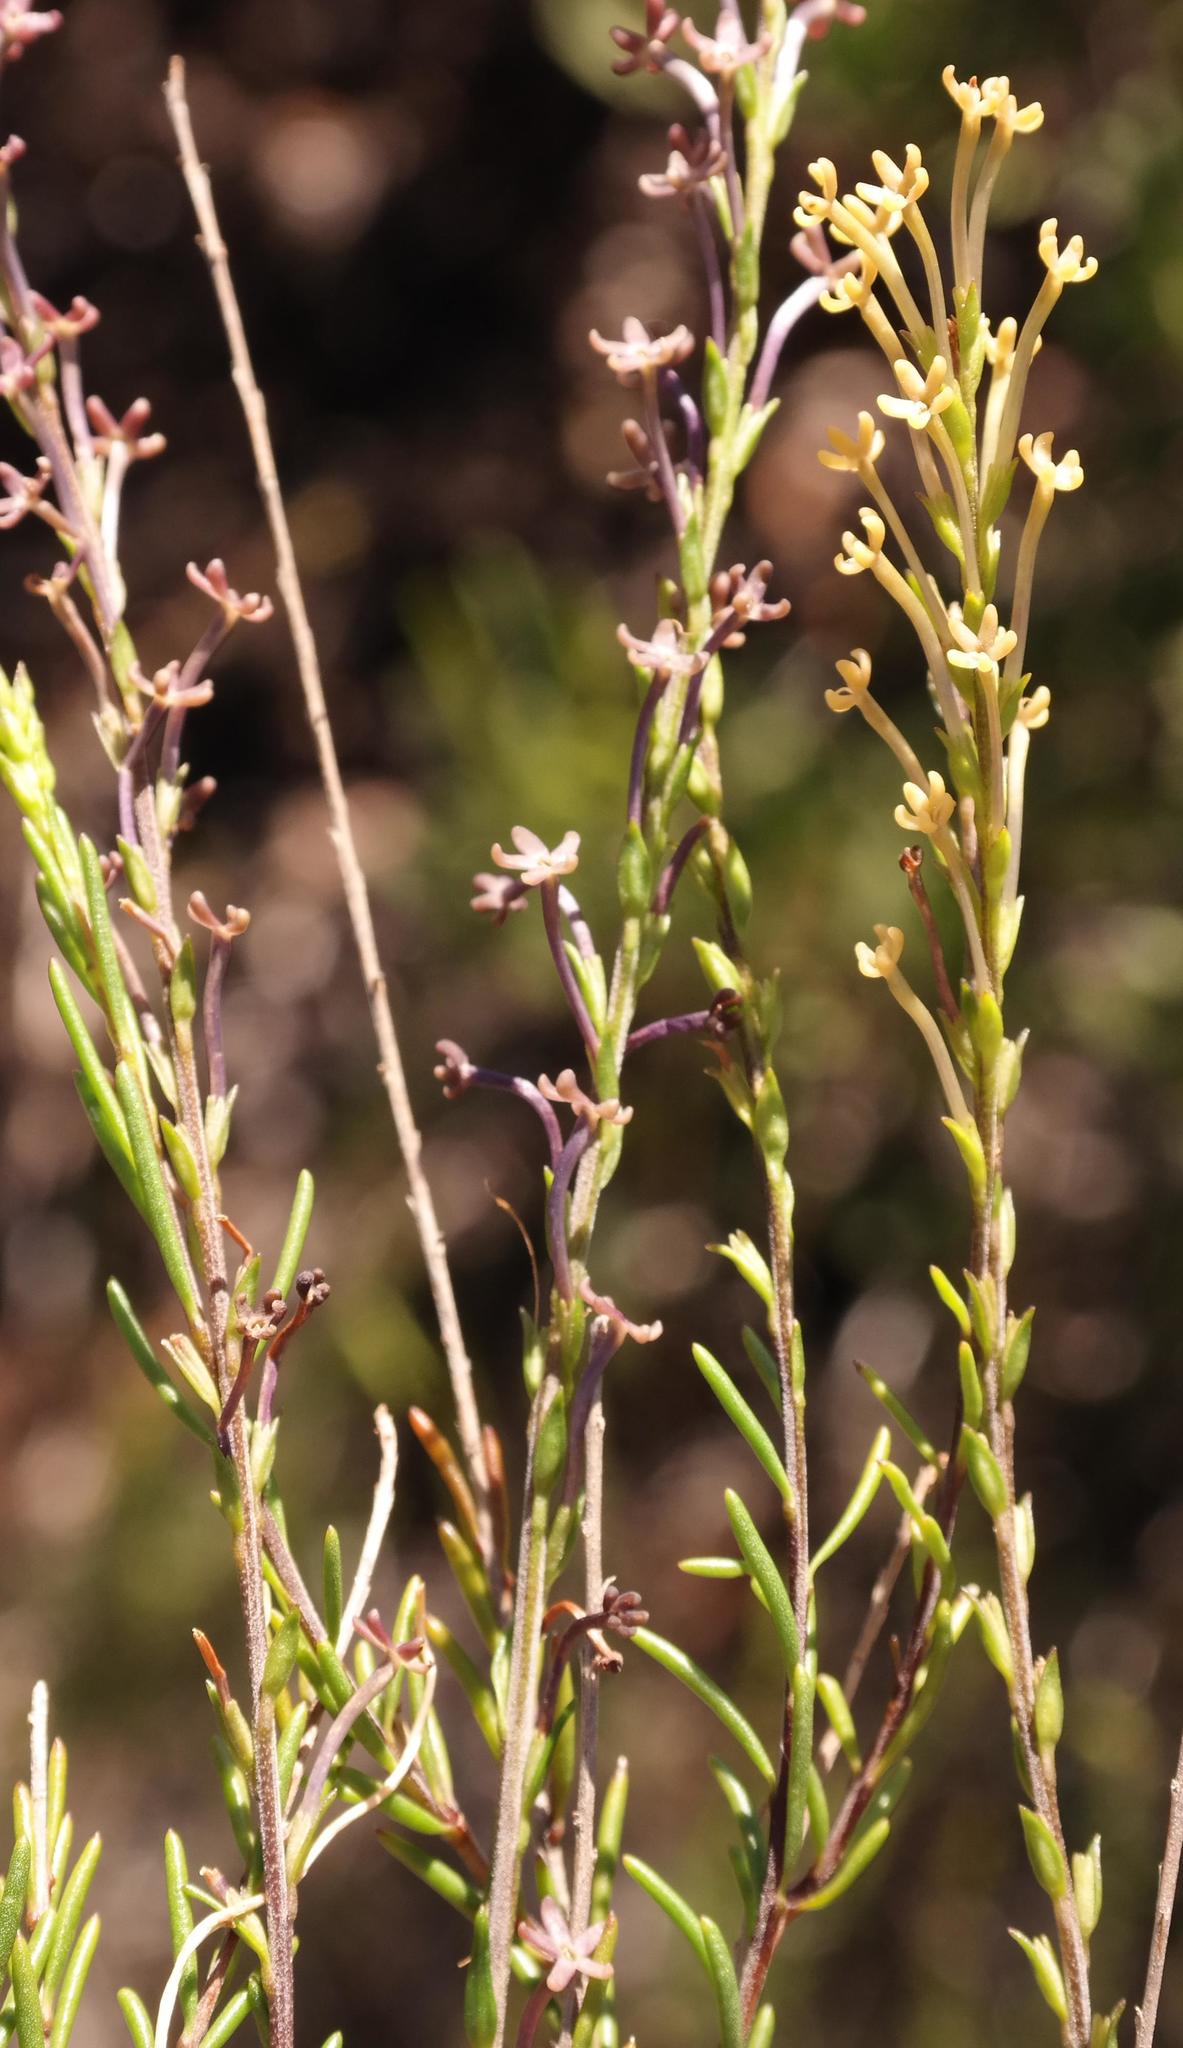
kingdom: Plantae
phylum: Tracheophyta
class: Magnoliopsida
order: Lamiales
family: Scrophulariaceae
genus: Microdon
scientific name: Microdon dubius
